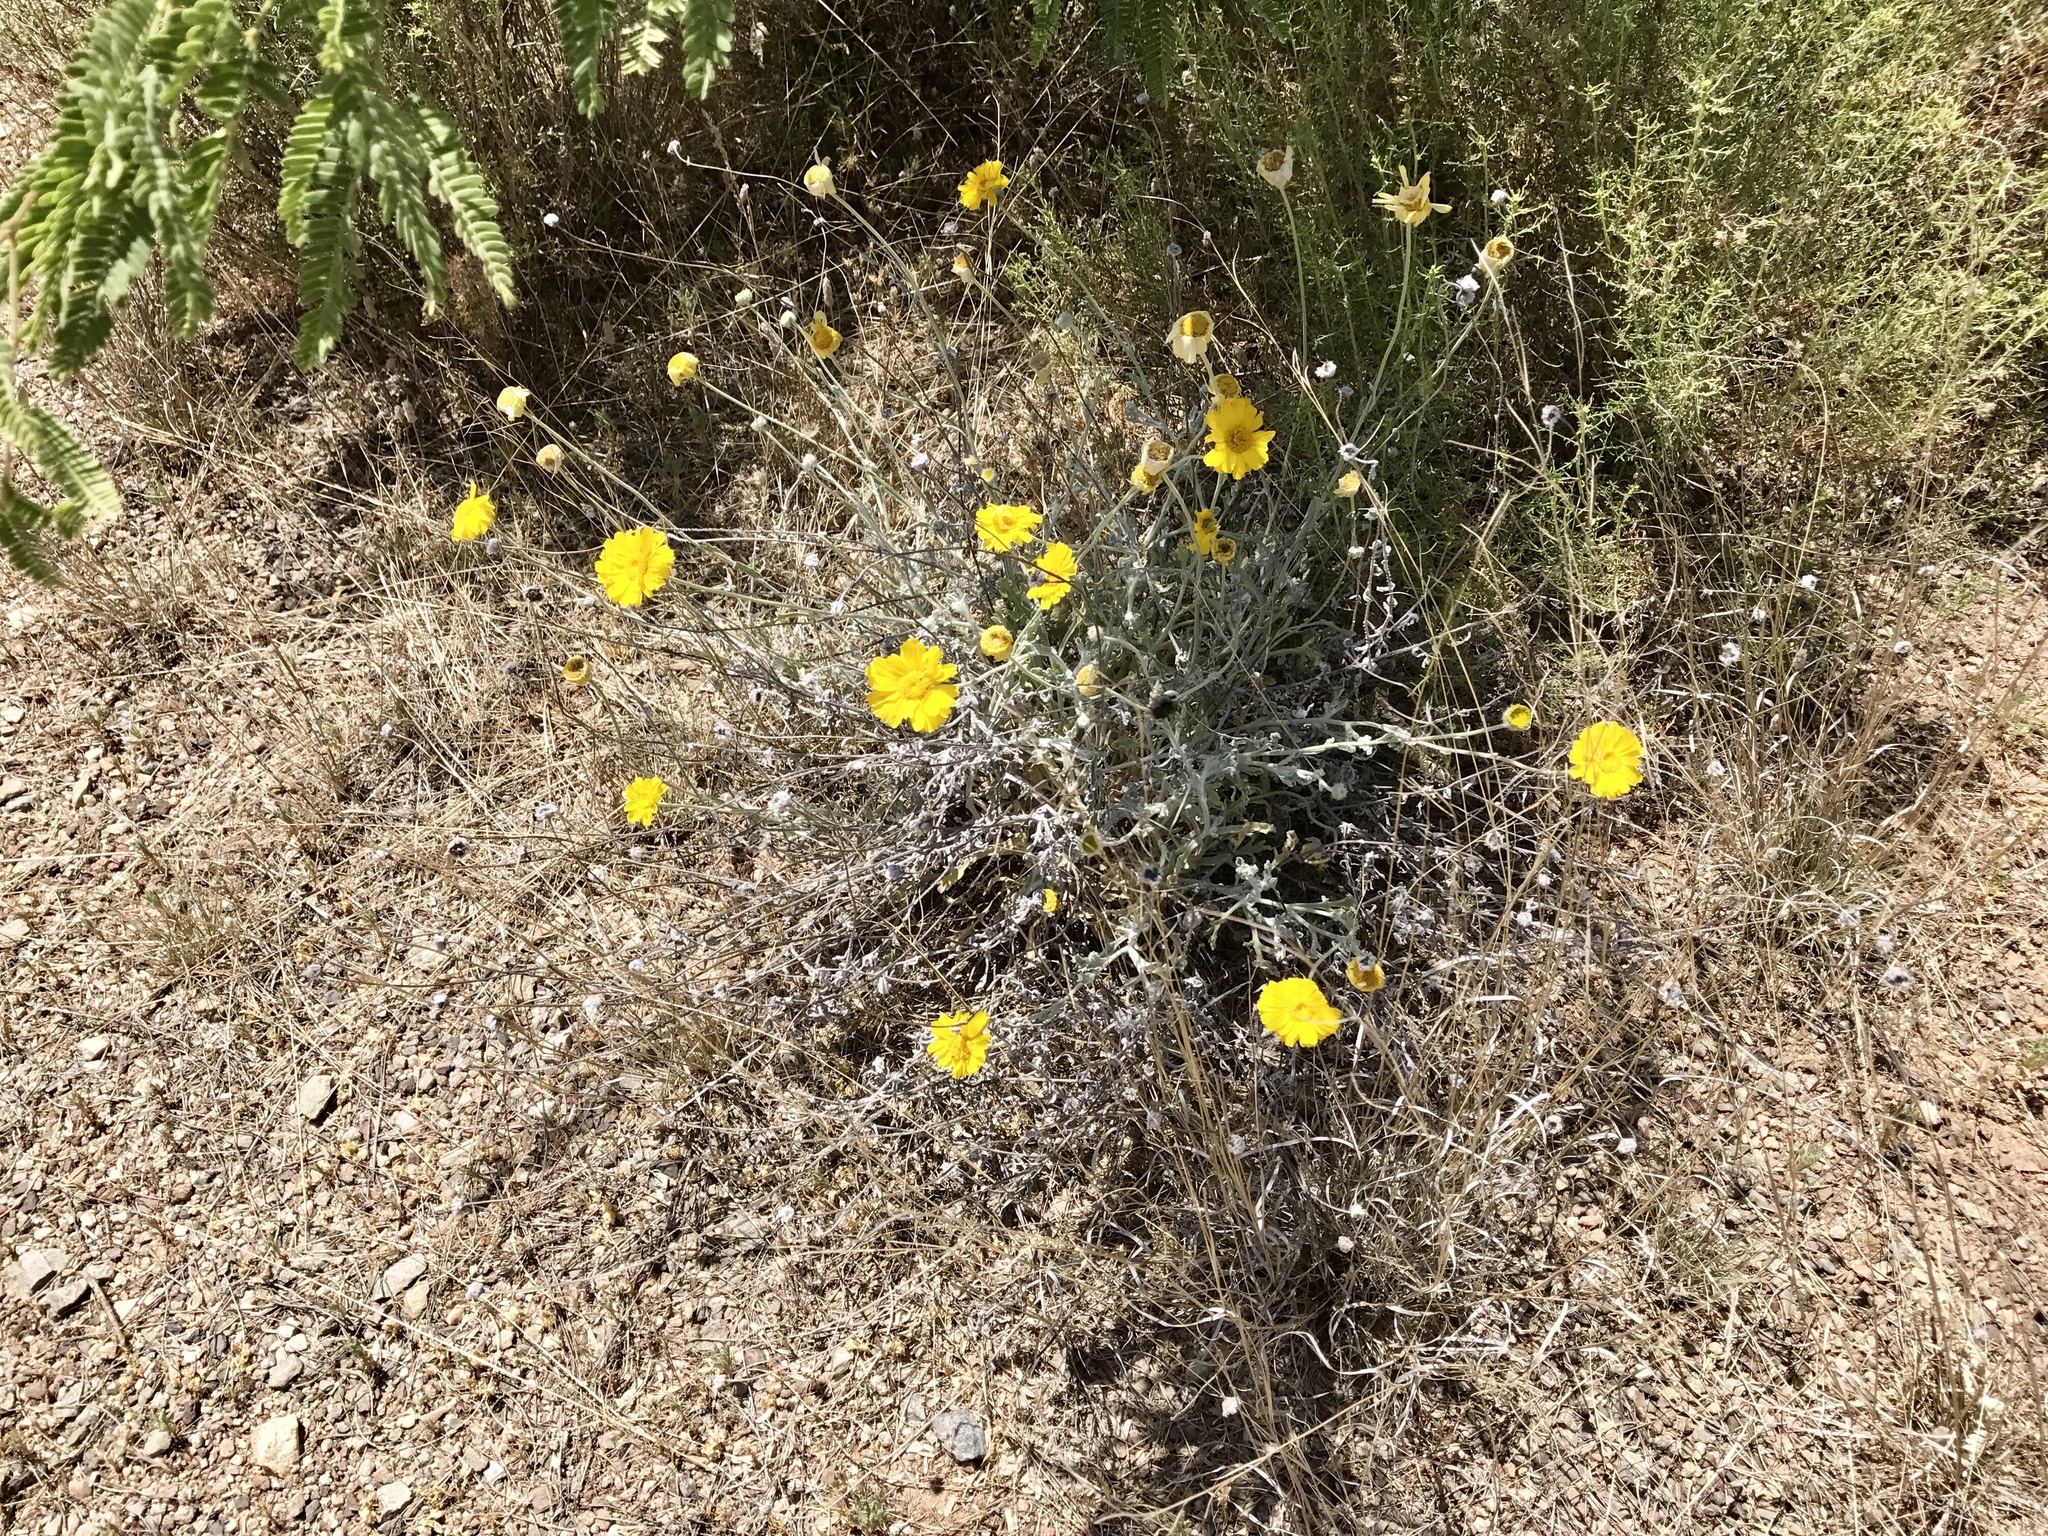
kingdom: Plantae
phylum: Tracheophyta
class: Magnoliopsida
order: Asterales
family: Asteraceae
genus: Baileya
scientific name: Baileya multiradiata
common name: Desert-marigold
